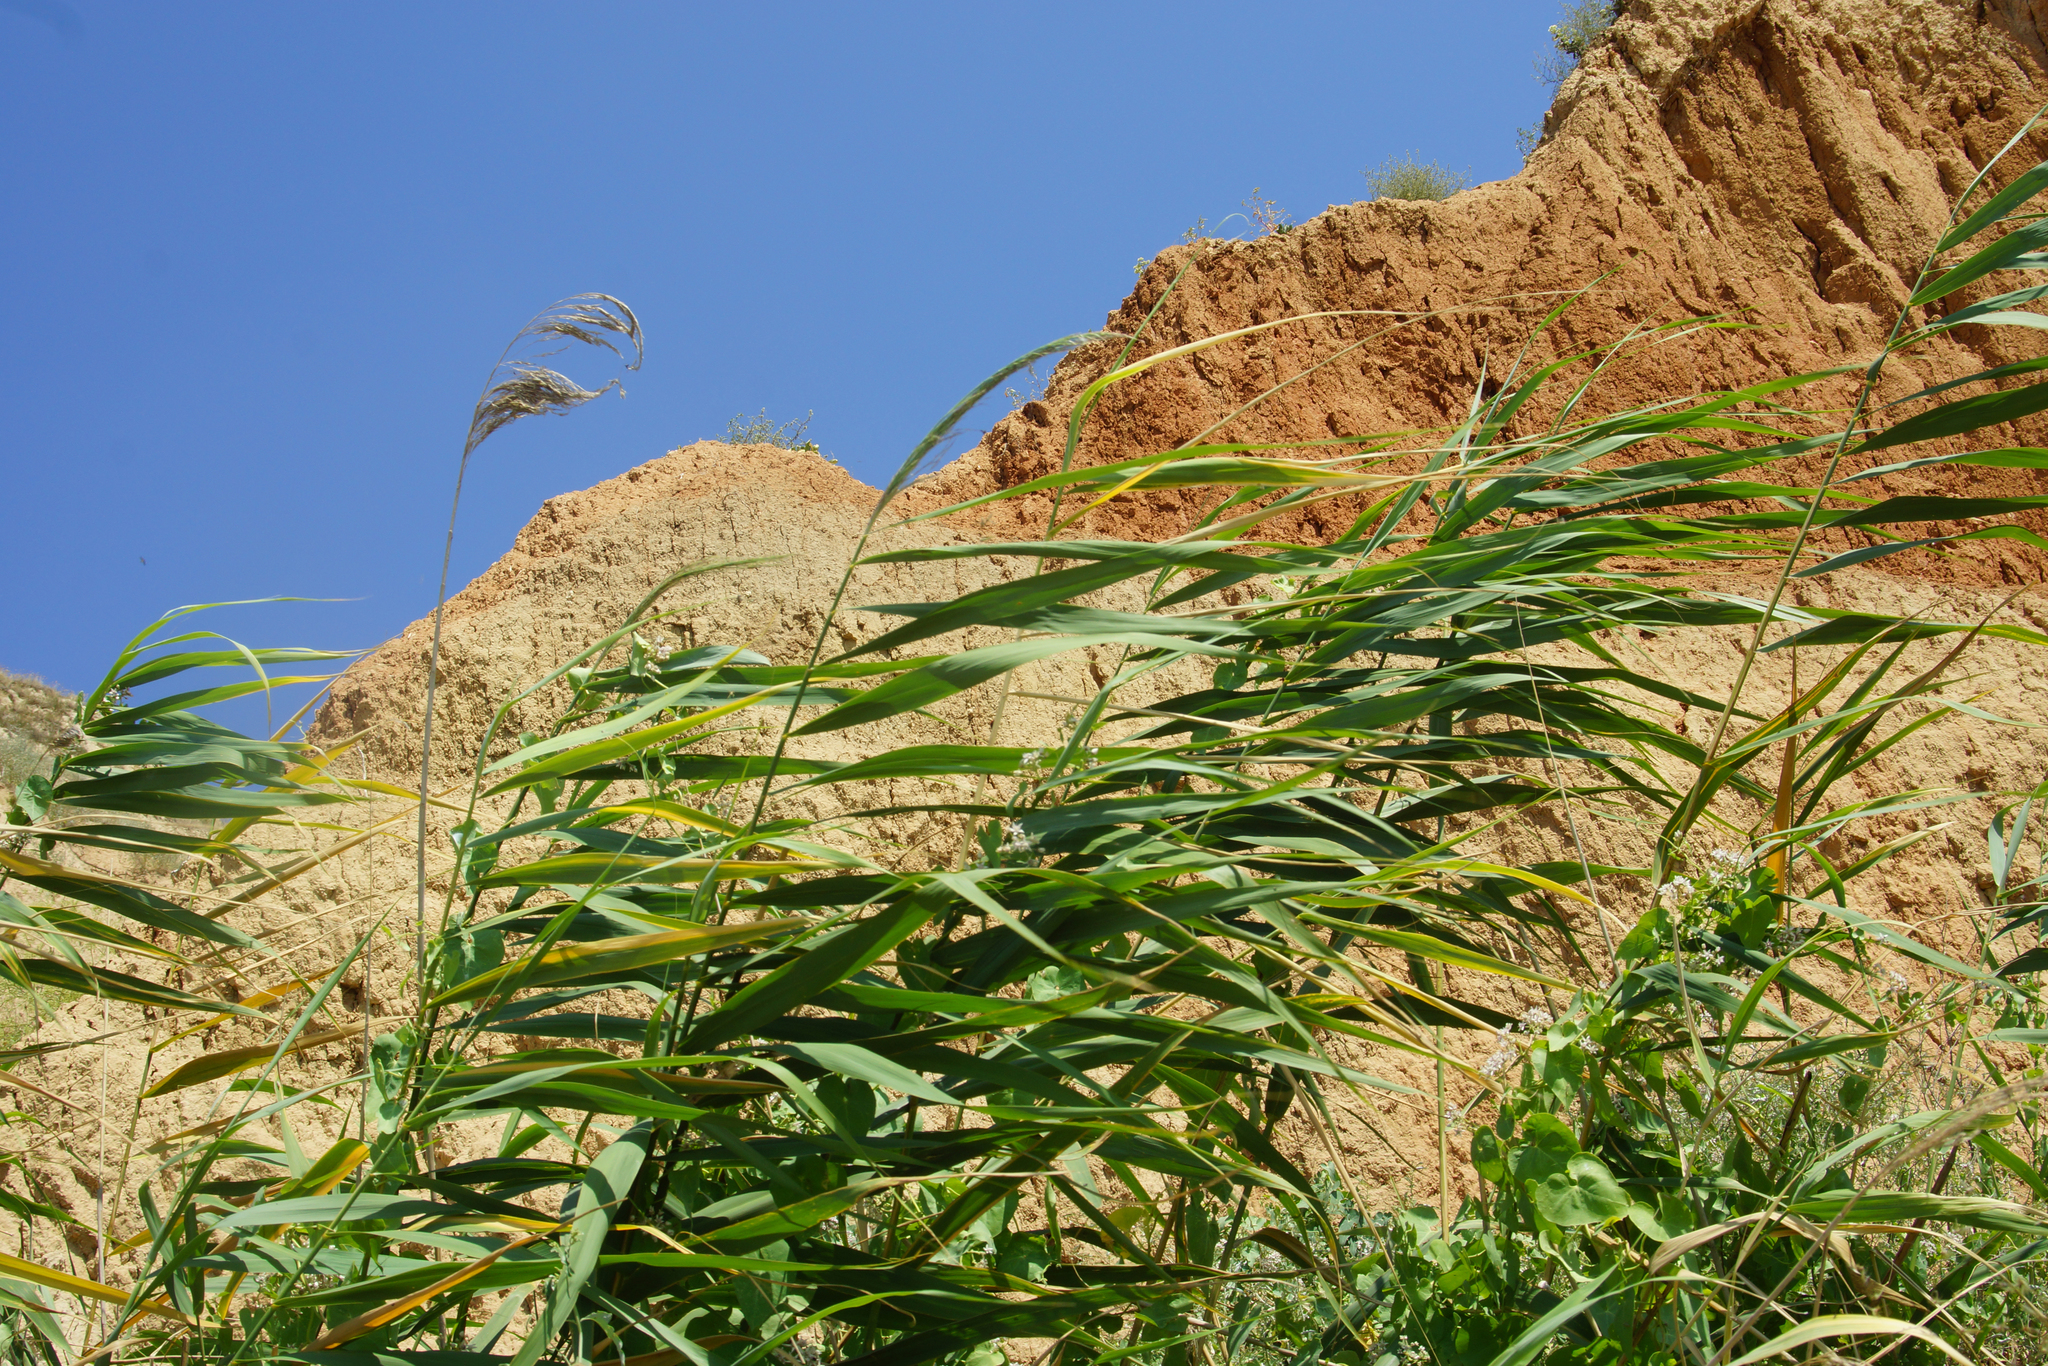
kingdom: Plantae
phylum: Tracheophyta
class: Liliopsida
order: Poales
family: Poaceae
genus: Phragmites
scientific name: Phragmites australis
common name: Common reed
